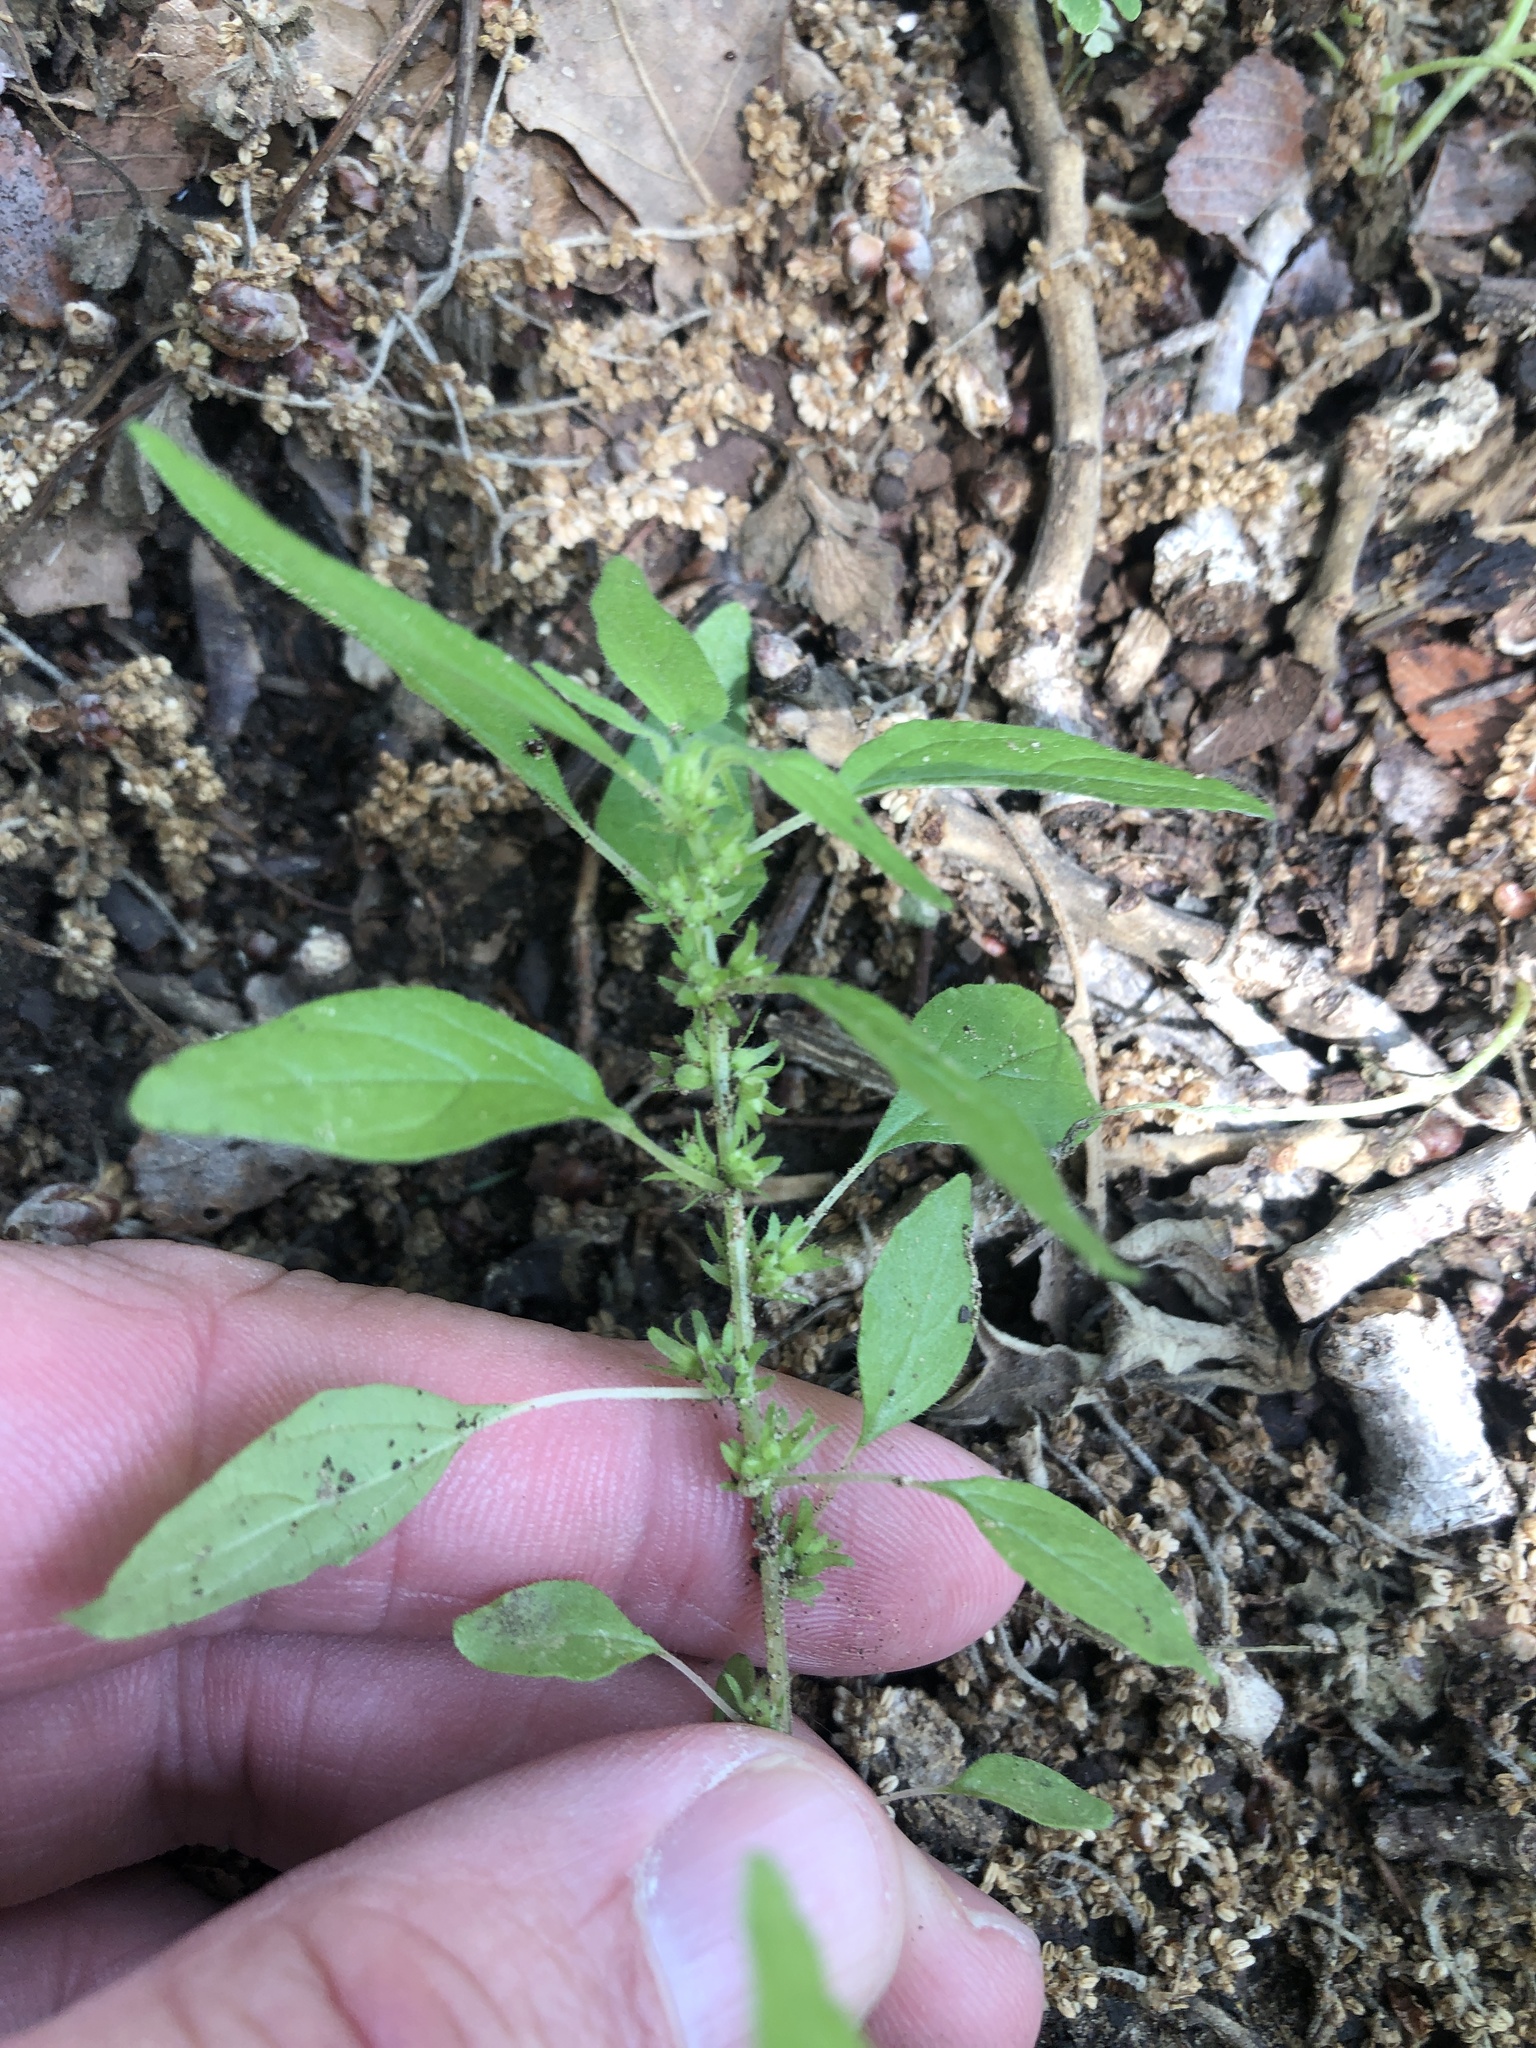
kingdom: Plantae
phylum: Tracheophyta
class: Magnoliopsida
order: Rosales
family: Urticaceae
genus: Parietaria
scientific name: Parietaria pensylvanica
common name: Pennsylvania pellitory
